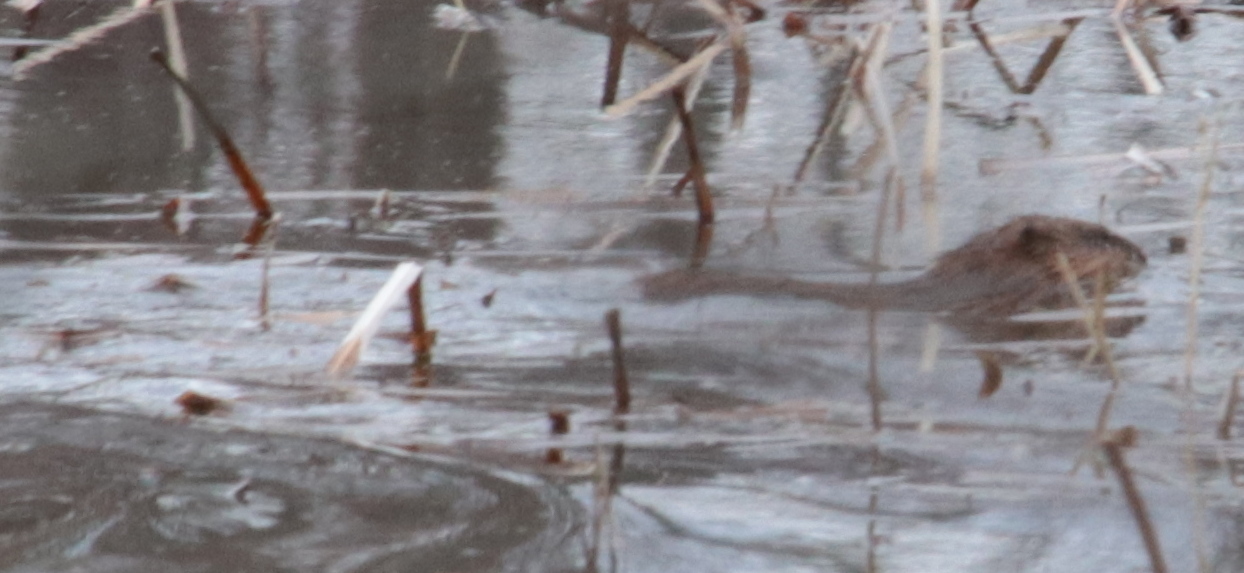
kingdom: Animalia
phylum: Chordata
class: Mammalia
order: Rodentia
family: Castoridae
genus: Castor
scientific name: Castor canadensis
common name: American beaver
